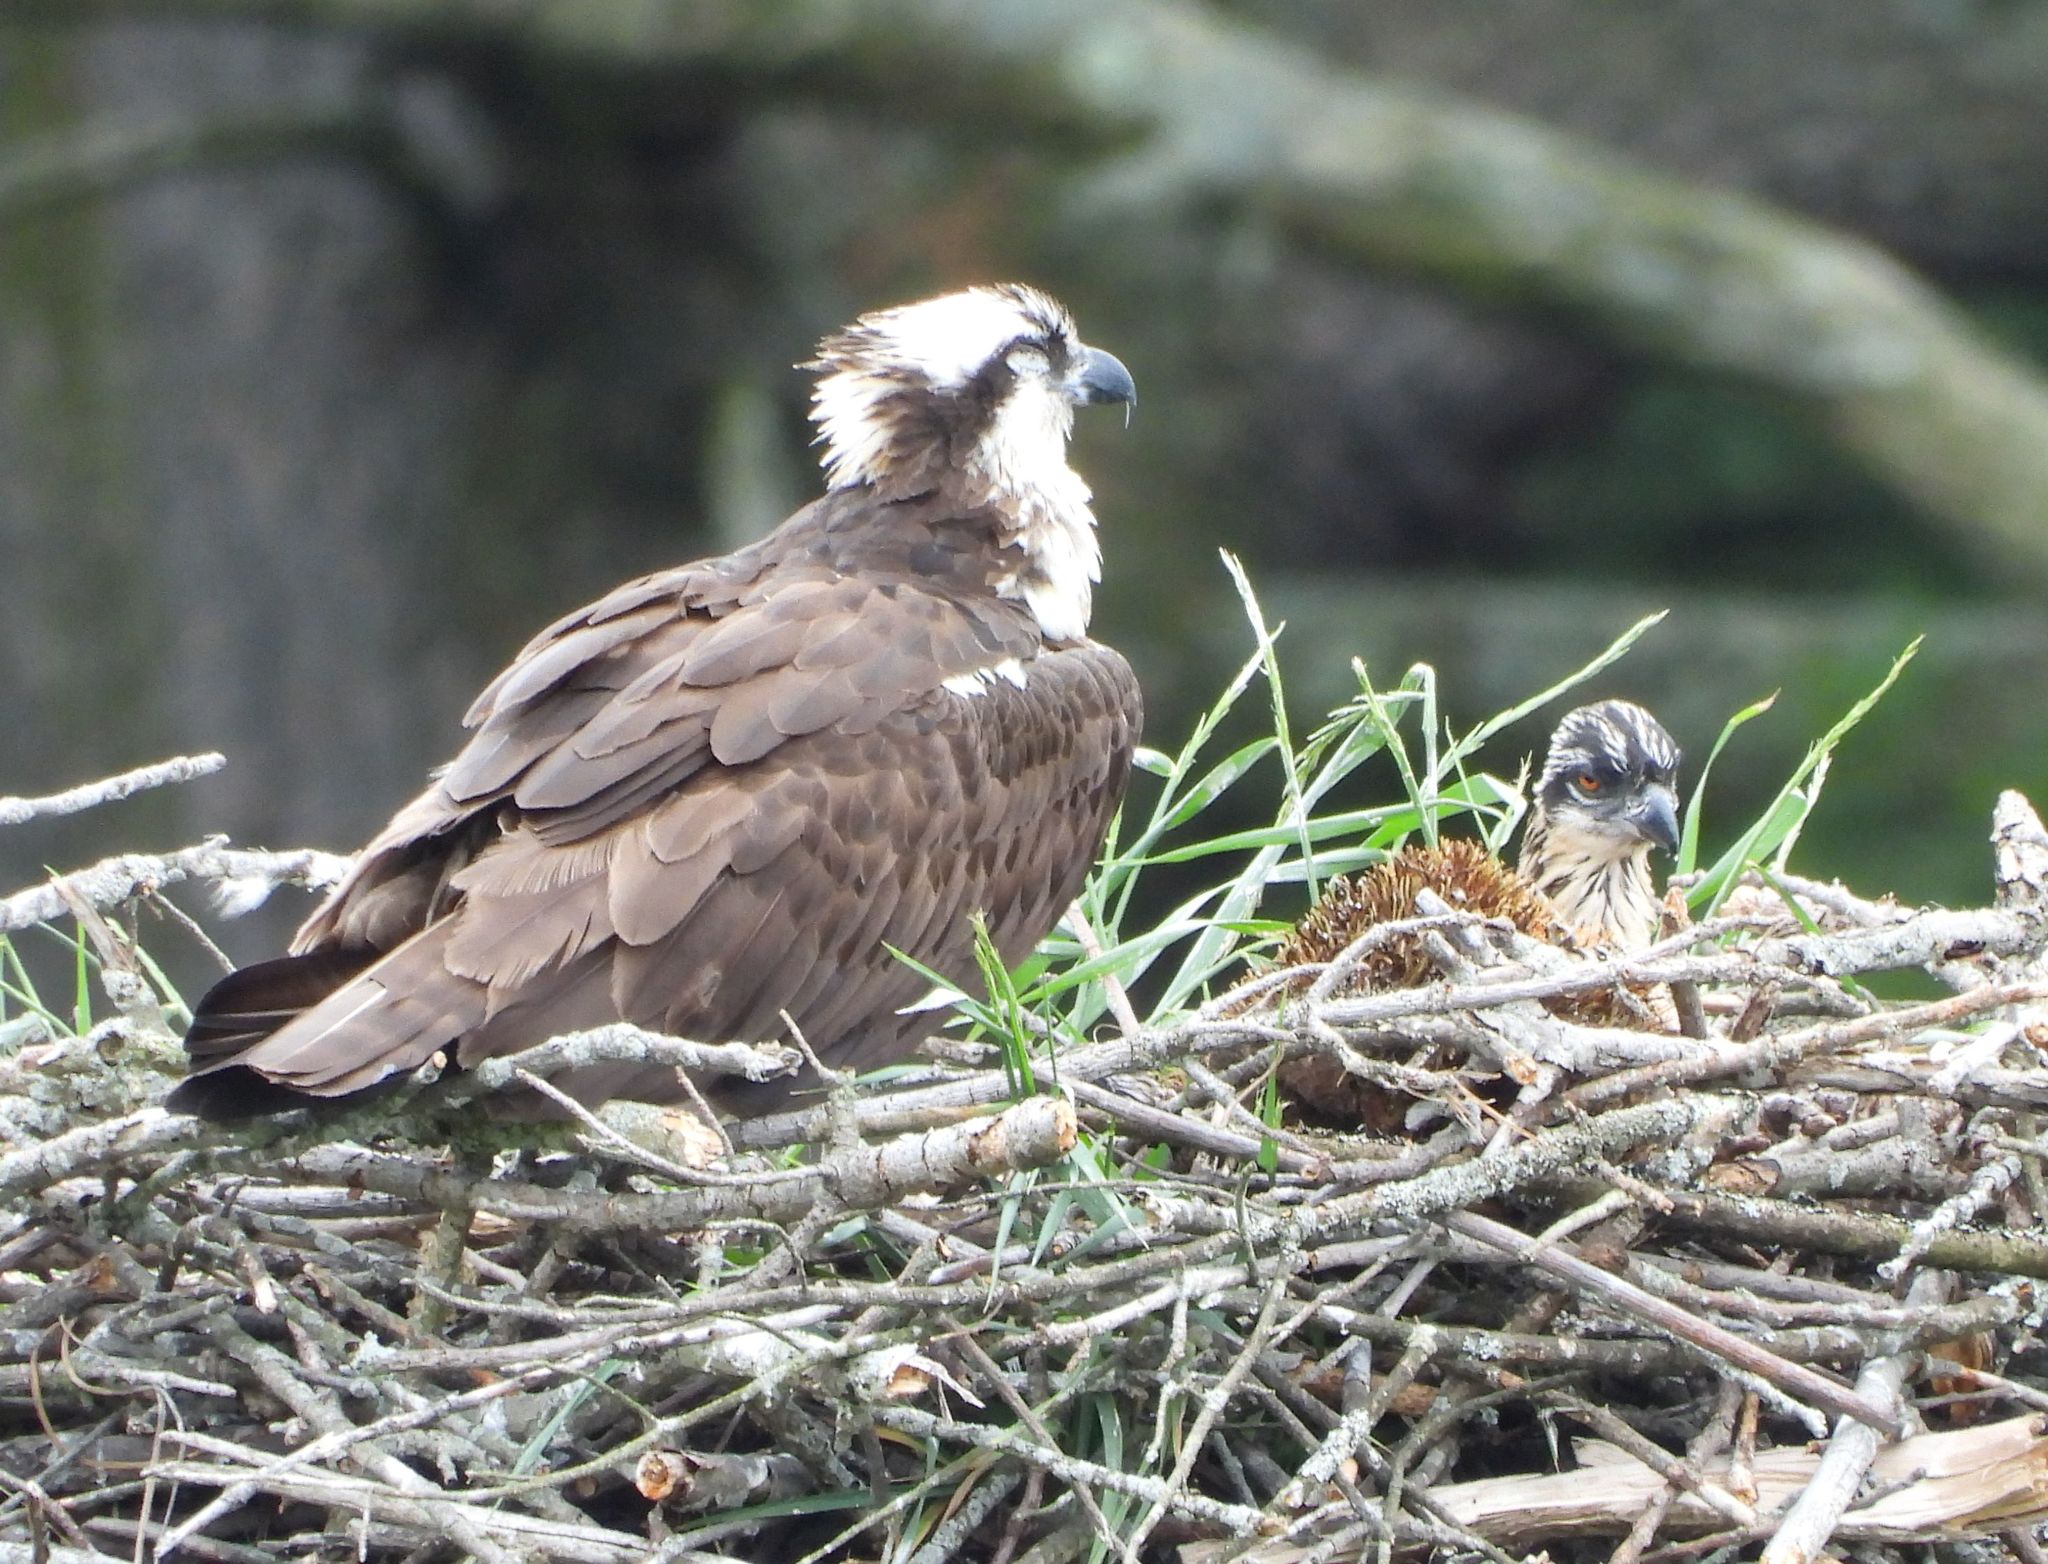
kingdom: Animalia
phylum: Chordata
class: Aves
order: Accipitriformes
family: Pandionidae
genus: Pandion
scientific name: Pandion haliaetus
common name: Osprey
